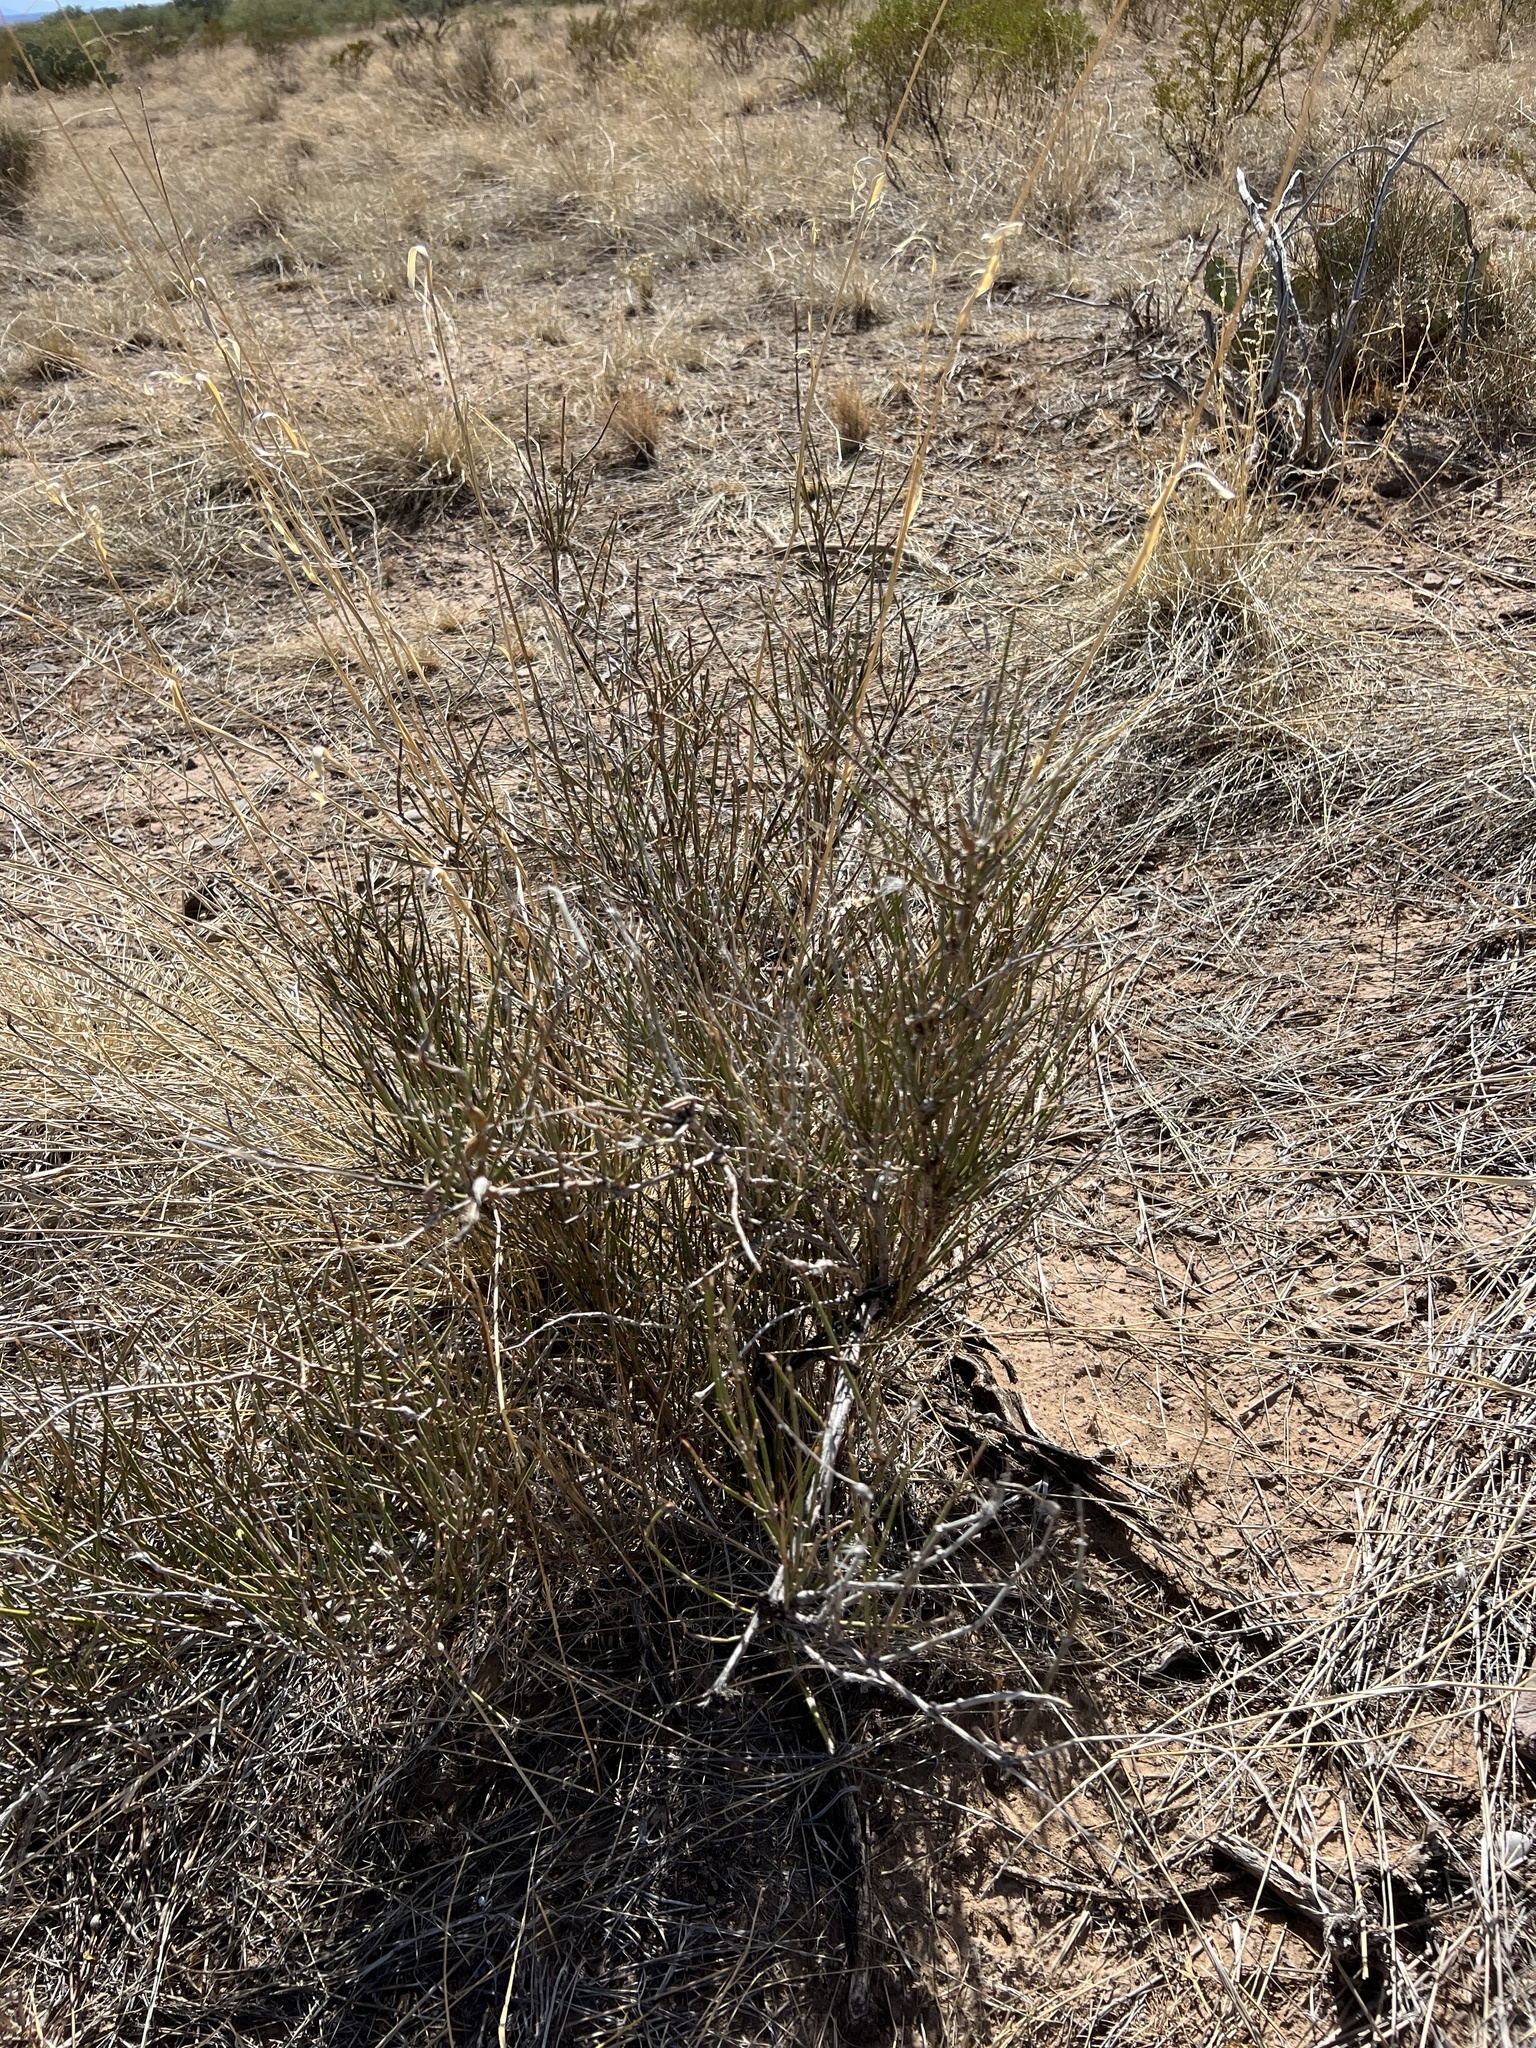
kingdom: Plantae
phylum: Tracheophyta
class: Gnetopsida
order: Ephedrales
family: Ephedraceae
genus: Ephedra
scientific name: Ephedra trifurca
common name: Mexican-tea
